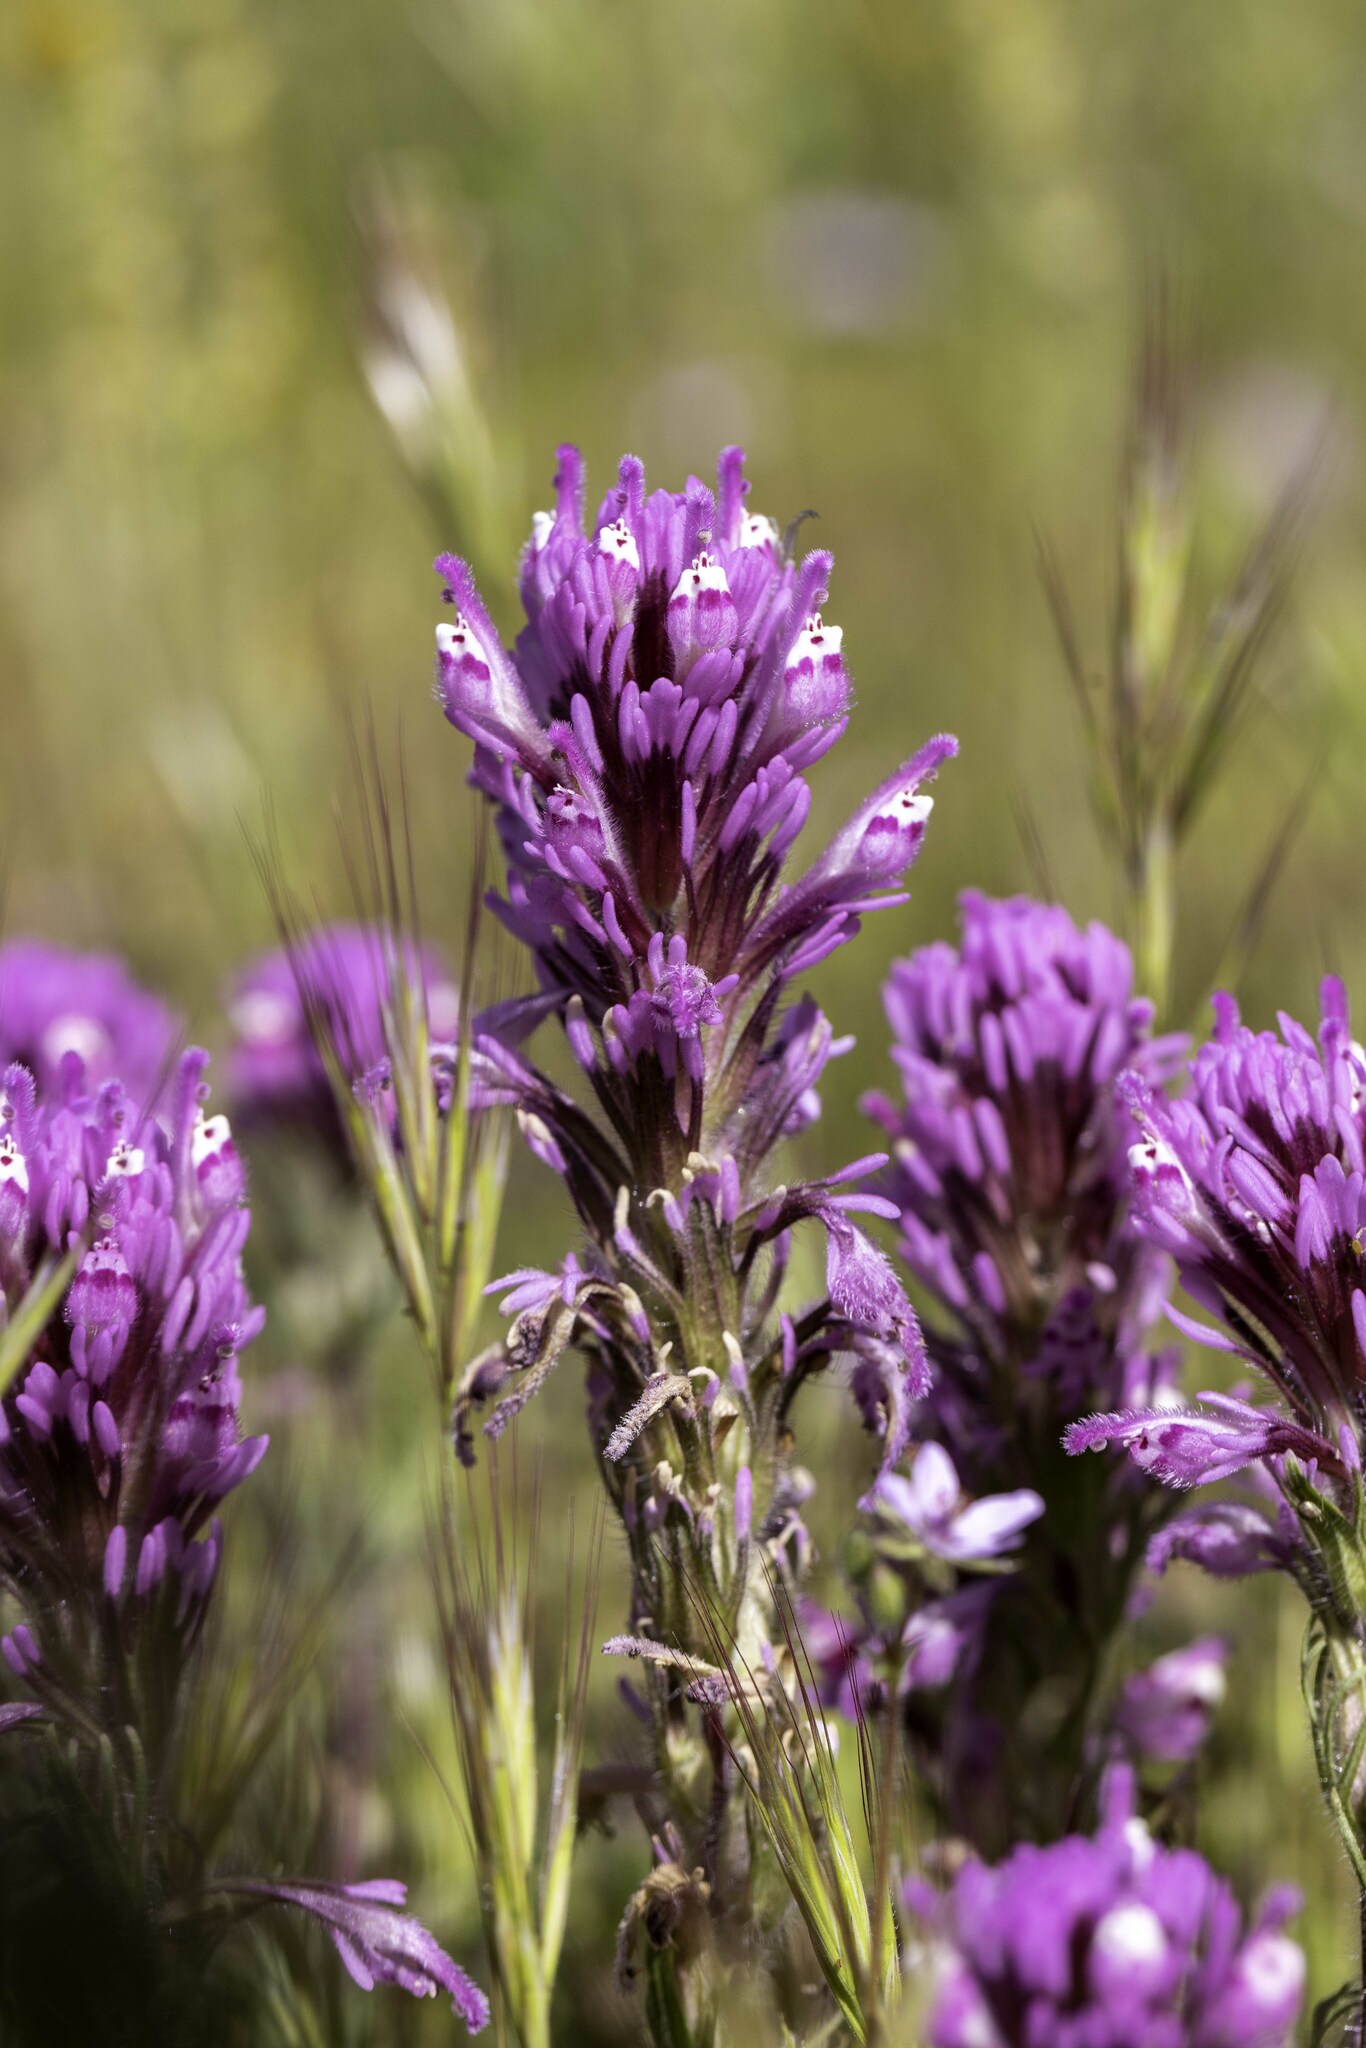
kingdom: Plantae
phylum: Tracheophyta
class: Magnoliopsida
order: Lamiales
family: Orobanchaceae
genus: Castilleja
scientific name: Castilleja exserta
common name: Purple owl-clover
